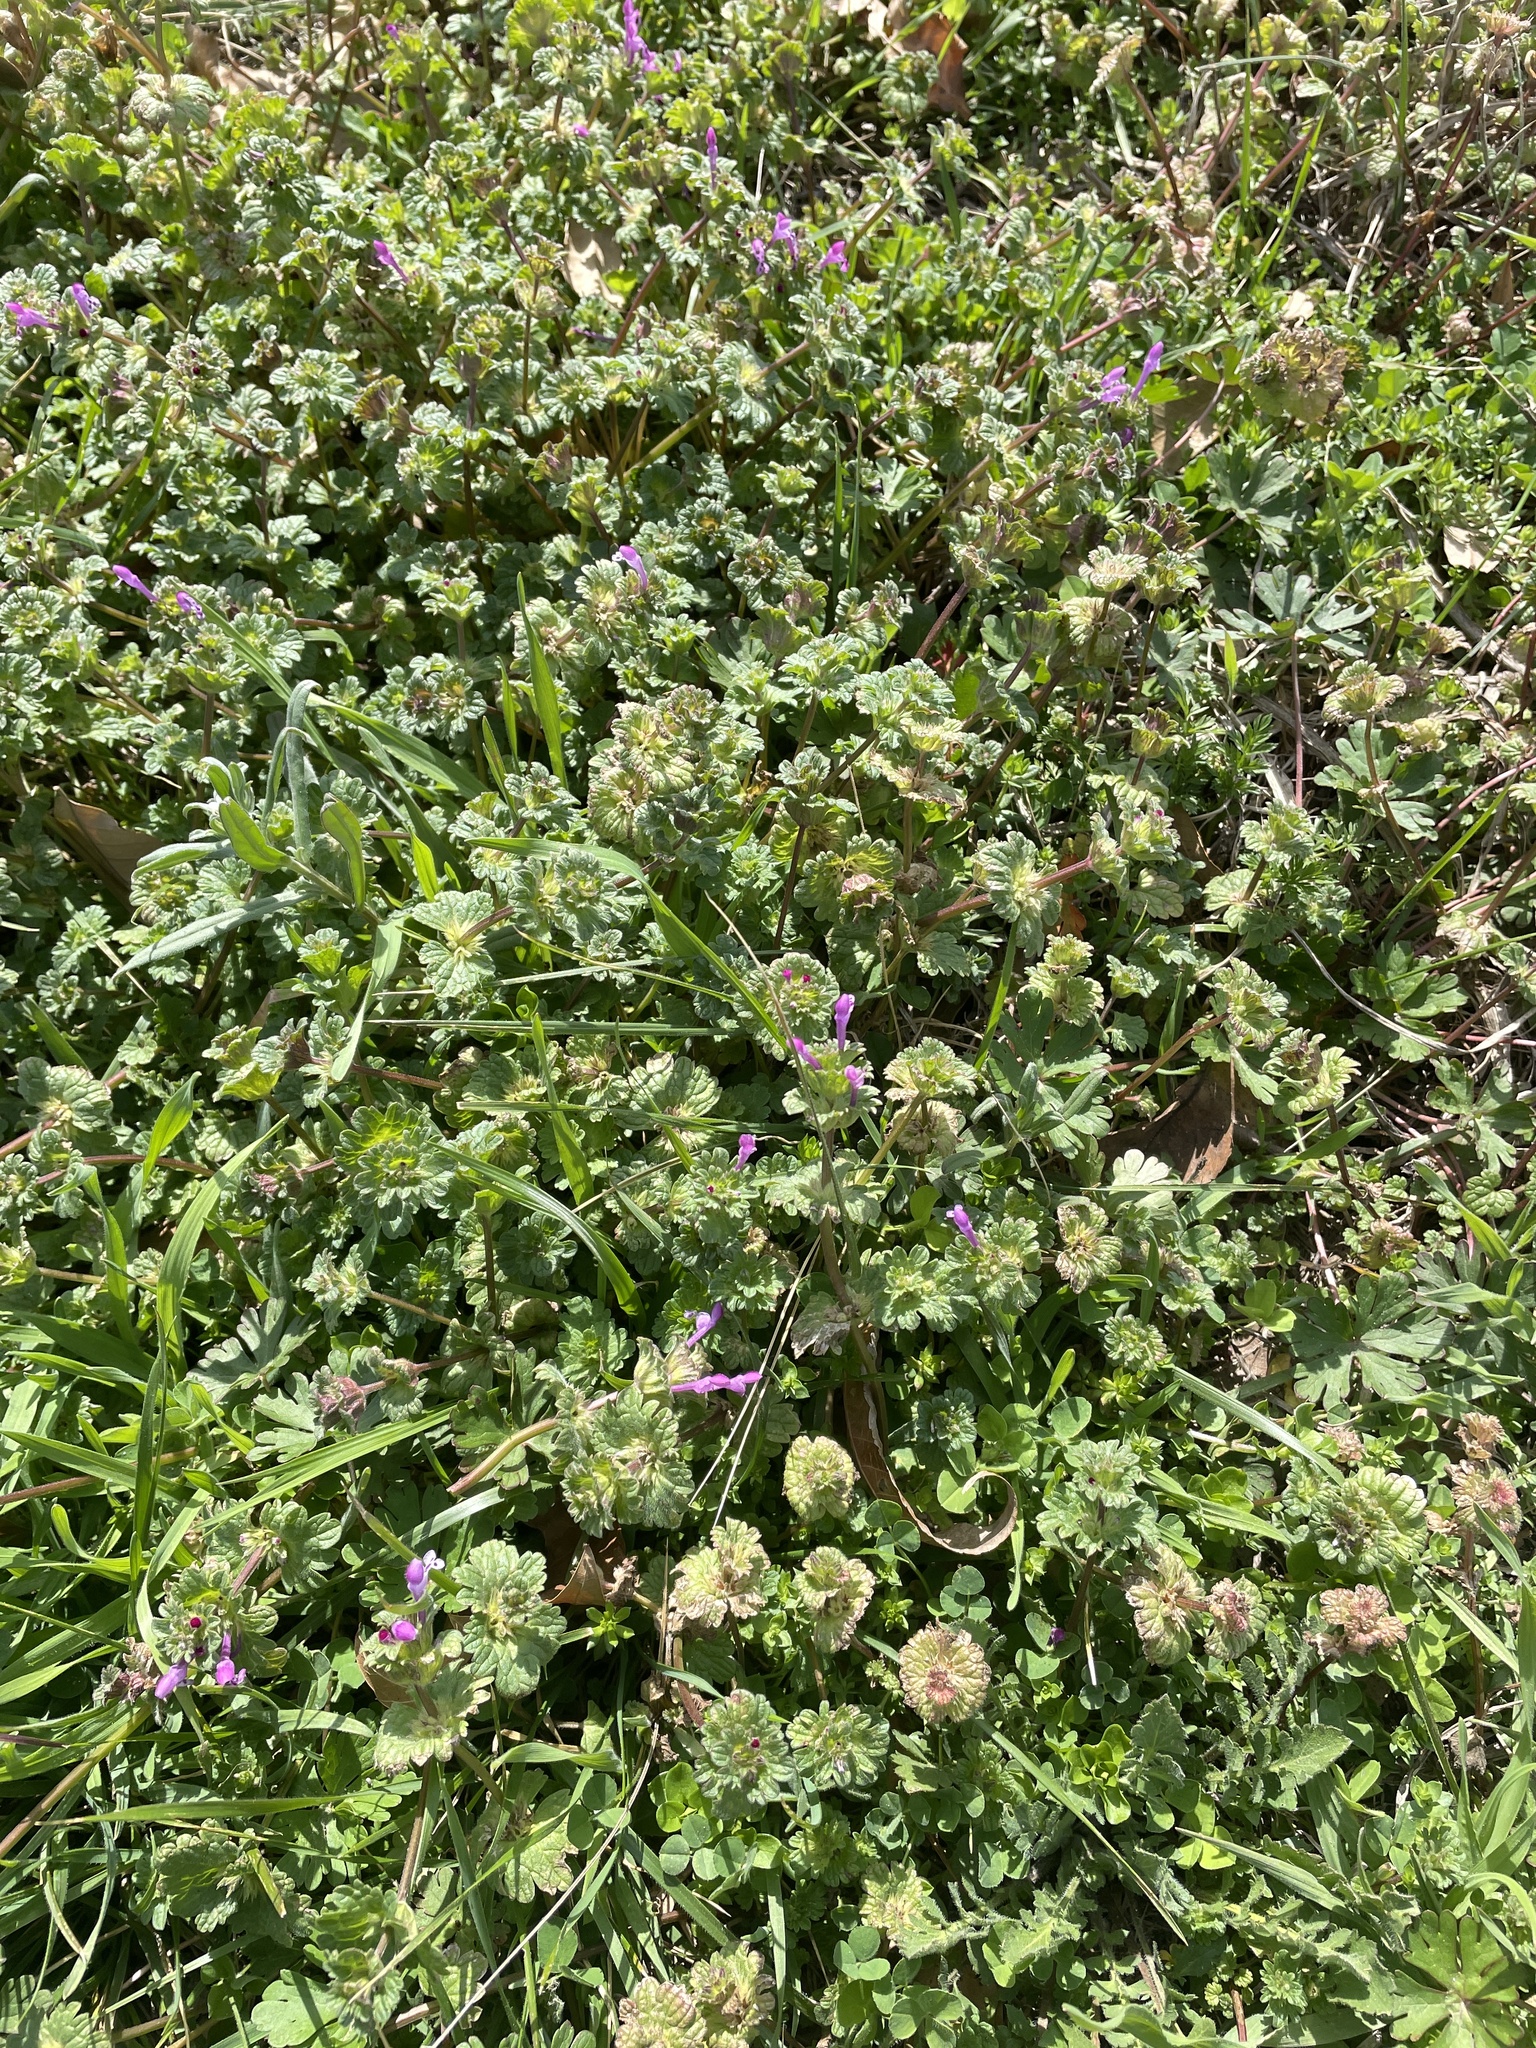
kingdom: Plantae
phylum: Tracheophyta
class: Magnoliopsida
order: Lamiales
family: Lamiaceae
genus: Lamium
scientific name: Lamium amplexicaule
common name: Henbit dead-nettle
